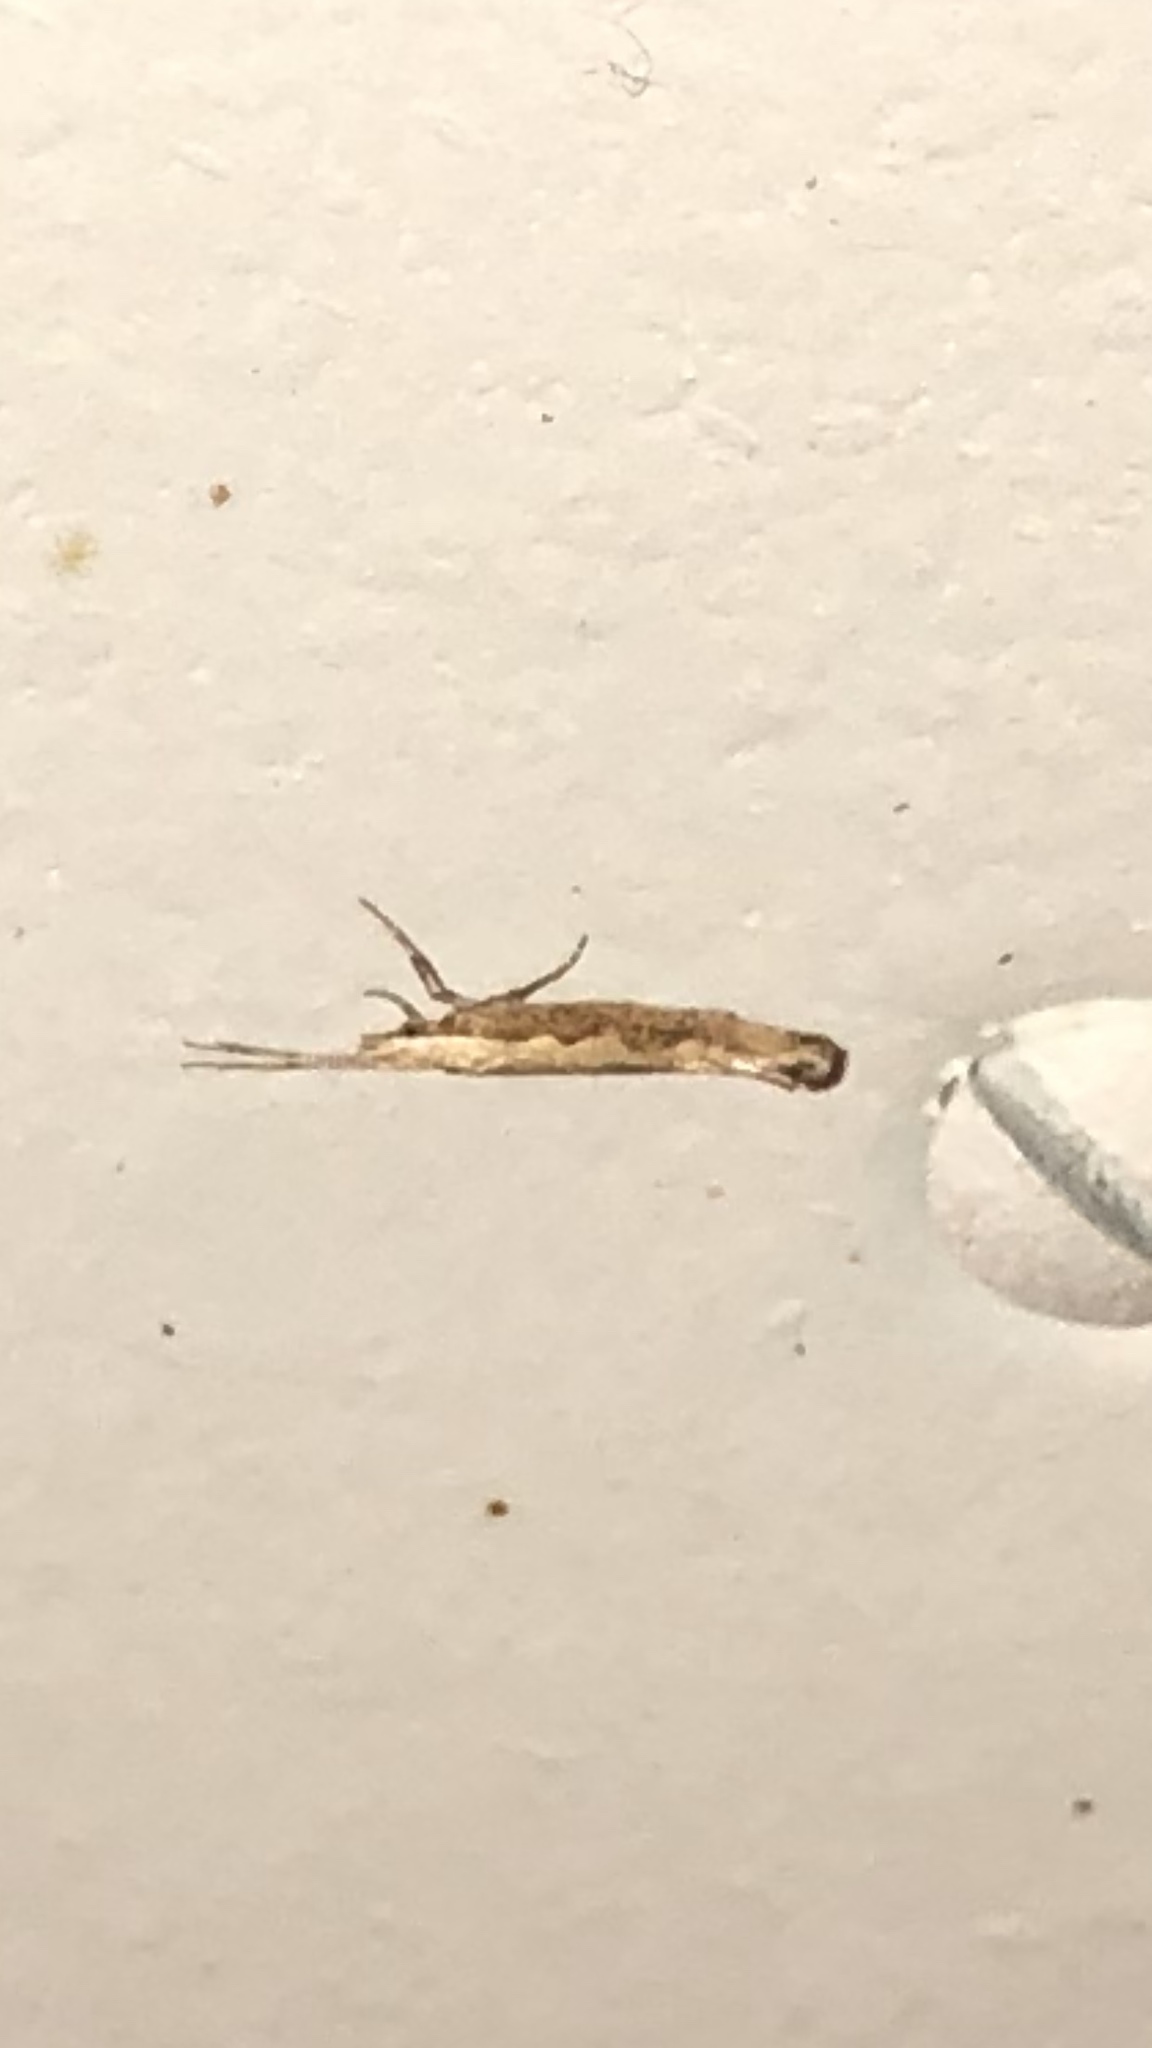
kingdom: Animalia
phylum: Arthropoda
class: Insecta
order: Lepidoptera
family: Plutellidae
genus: Plutella
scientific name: Plutella xylostella
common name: Diamond-back moth
